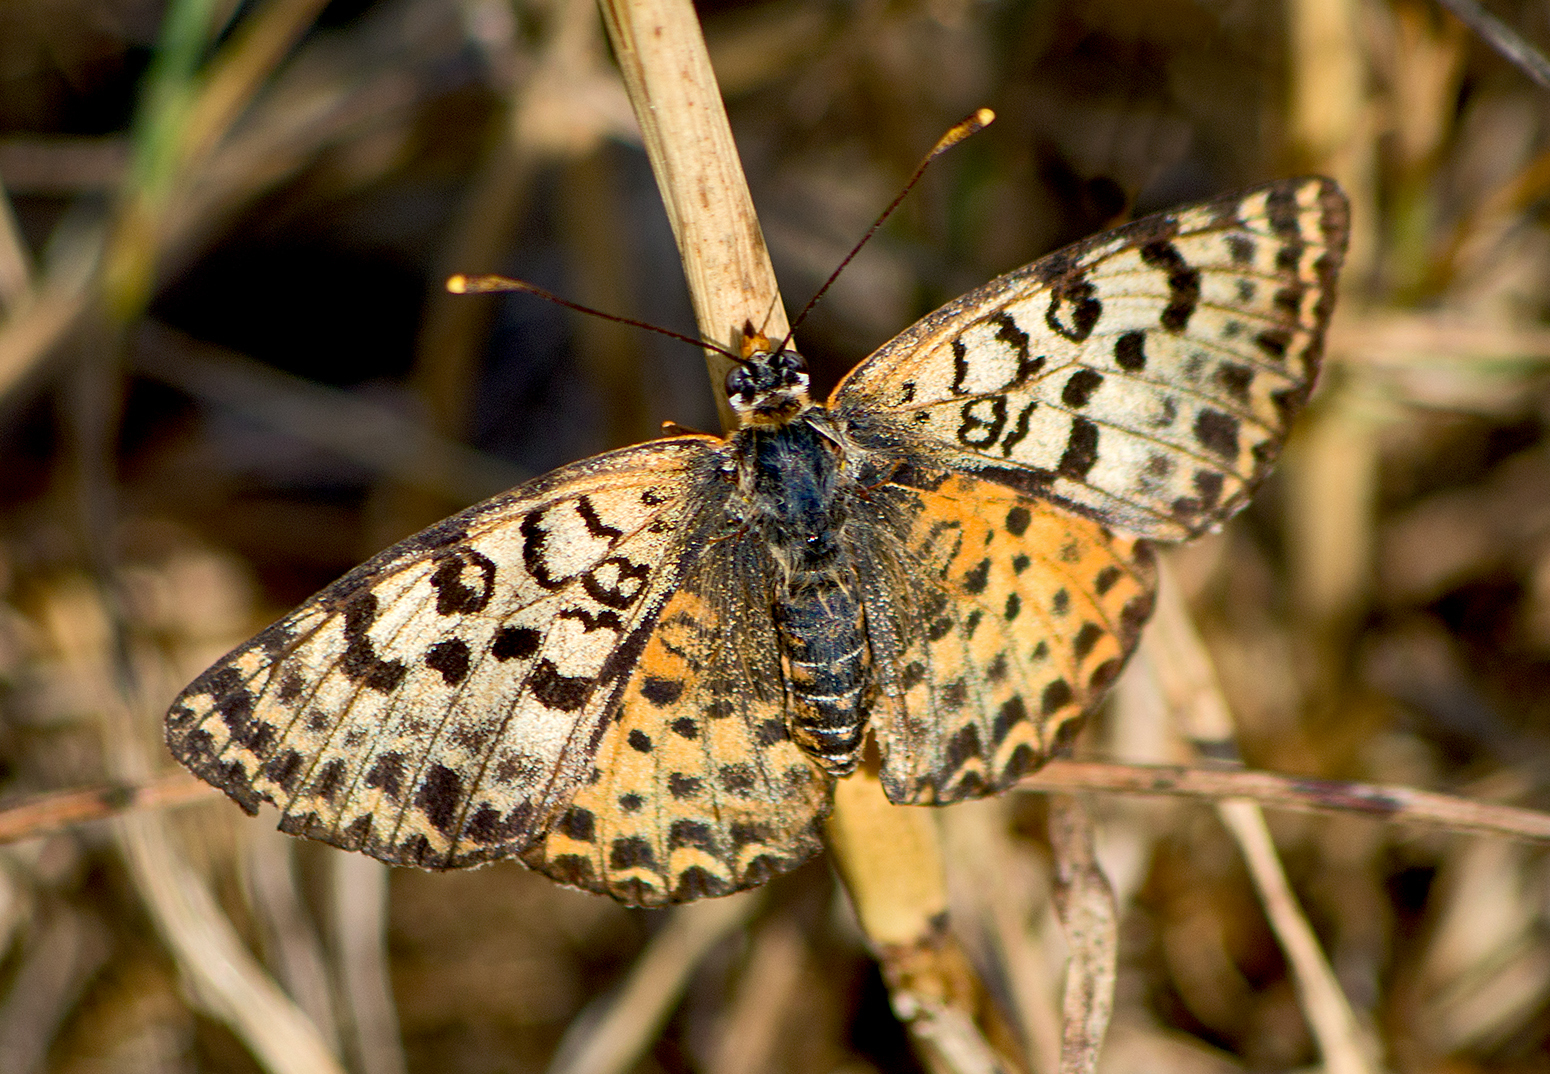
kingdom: Animalia
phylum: Arthropoda
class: Insecta
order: Lepidoptera
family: Nymphalidae
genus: Melitaea
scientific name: Melitaea didyma
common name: Spotted fritillary
